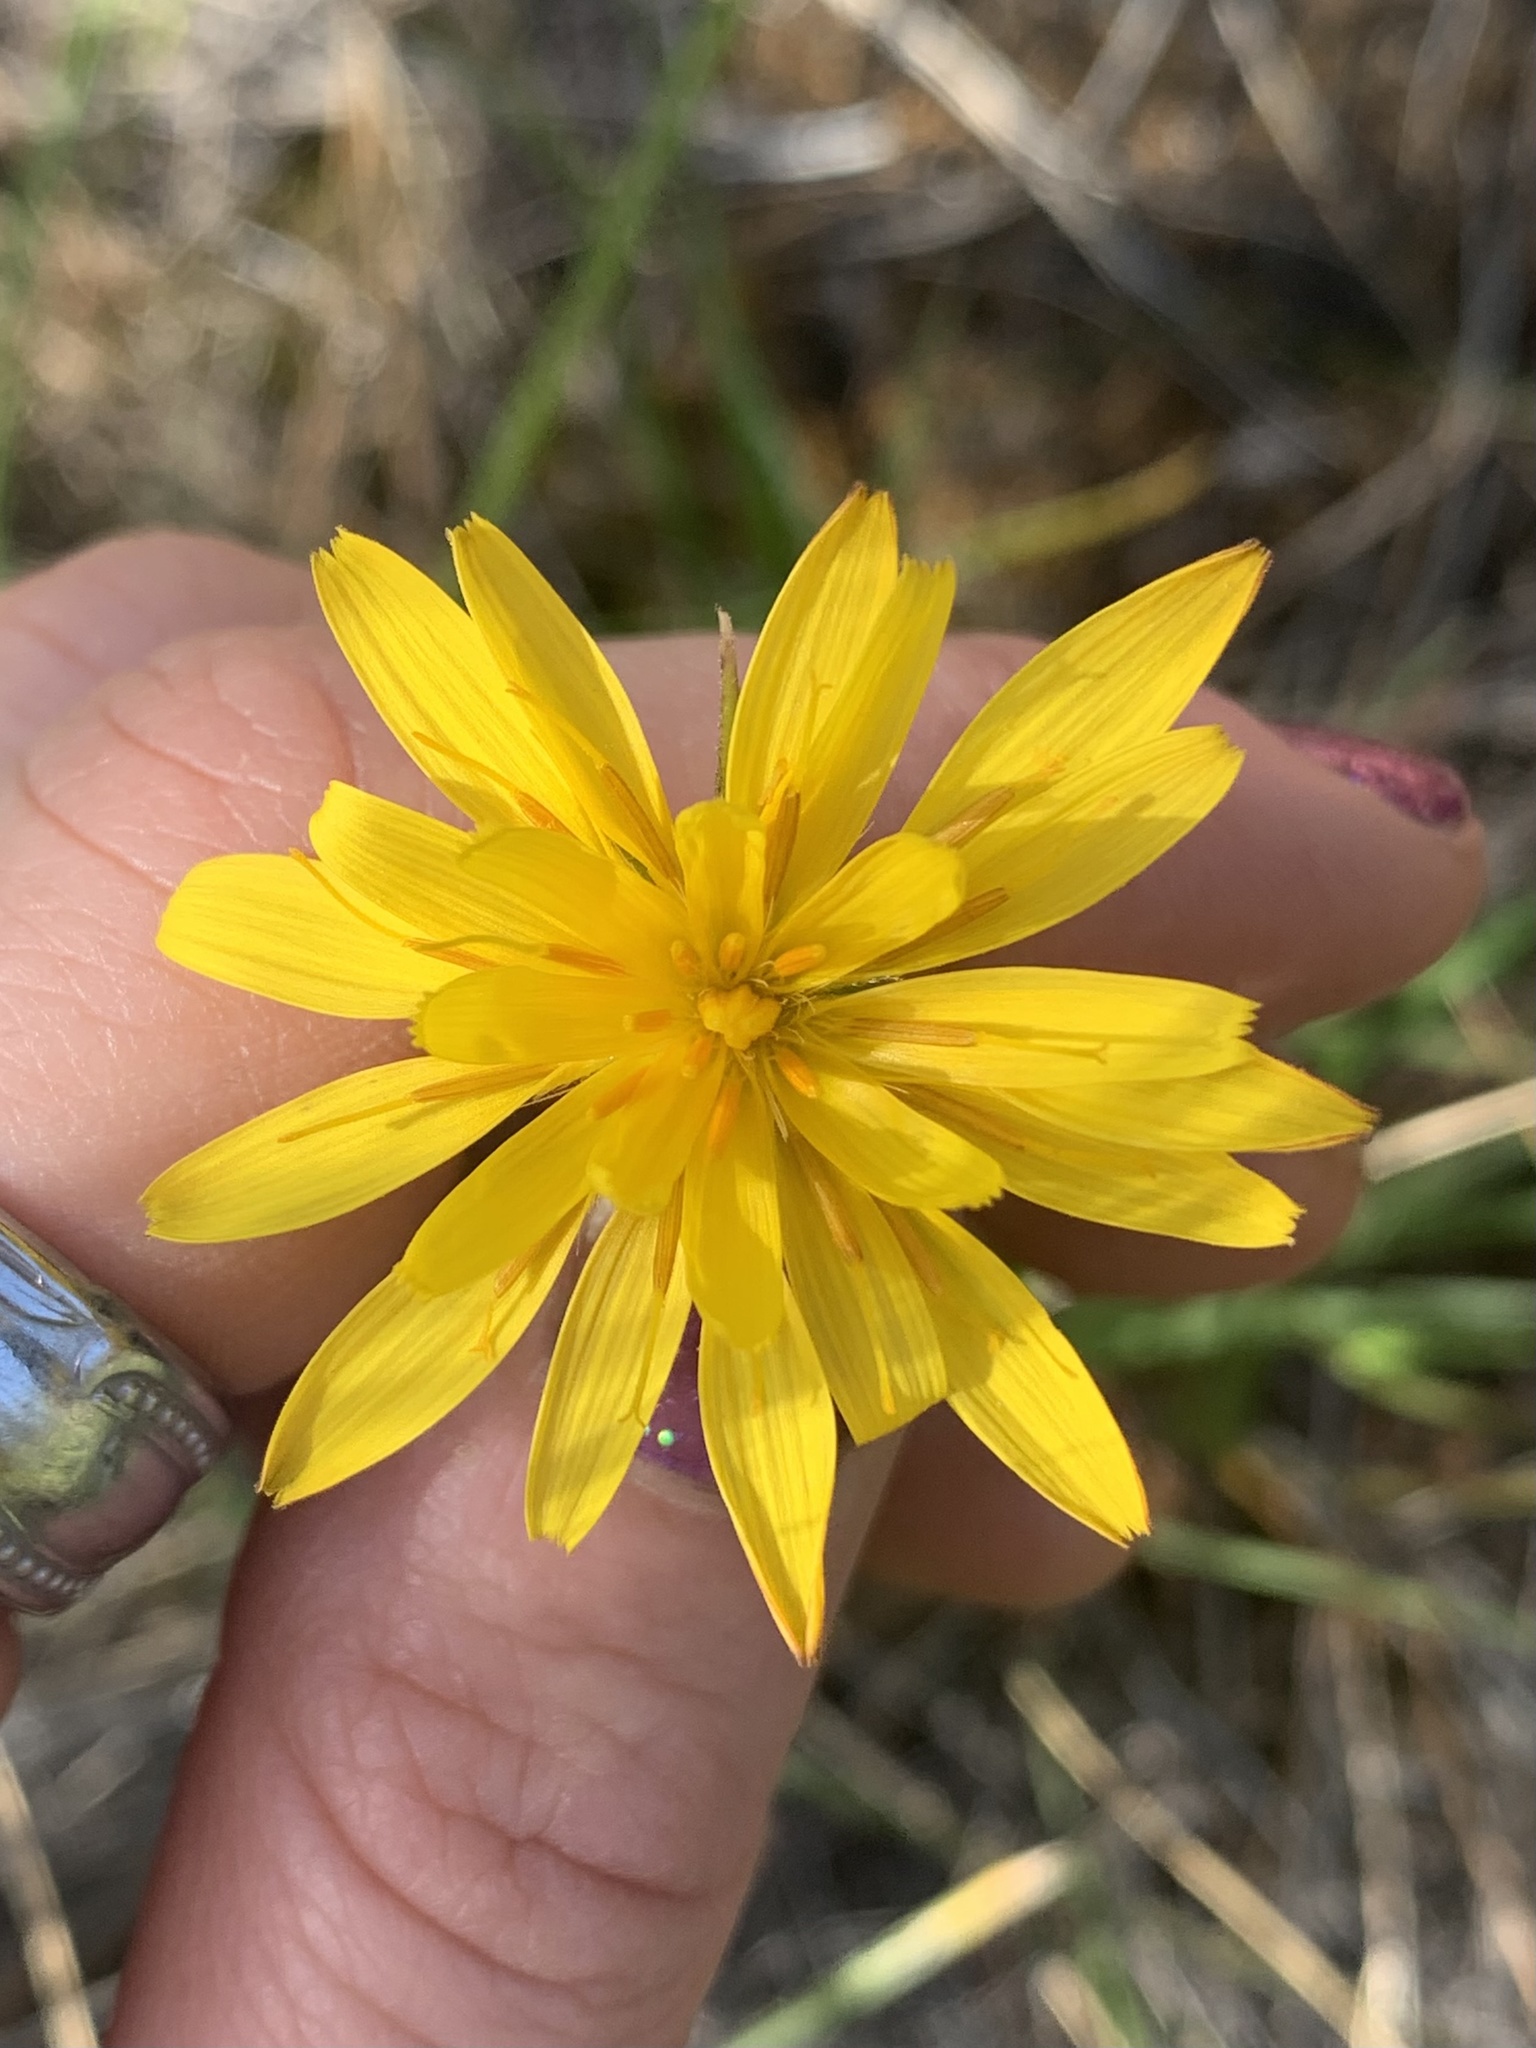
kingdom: Plantae
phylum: Tracheophyta
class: Magnoliopsida
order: Asterales
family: Asteraceae
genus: Agoseris
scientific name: Agoseris heterophylla
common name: Annual agoseris
